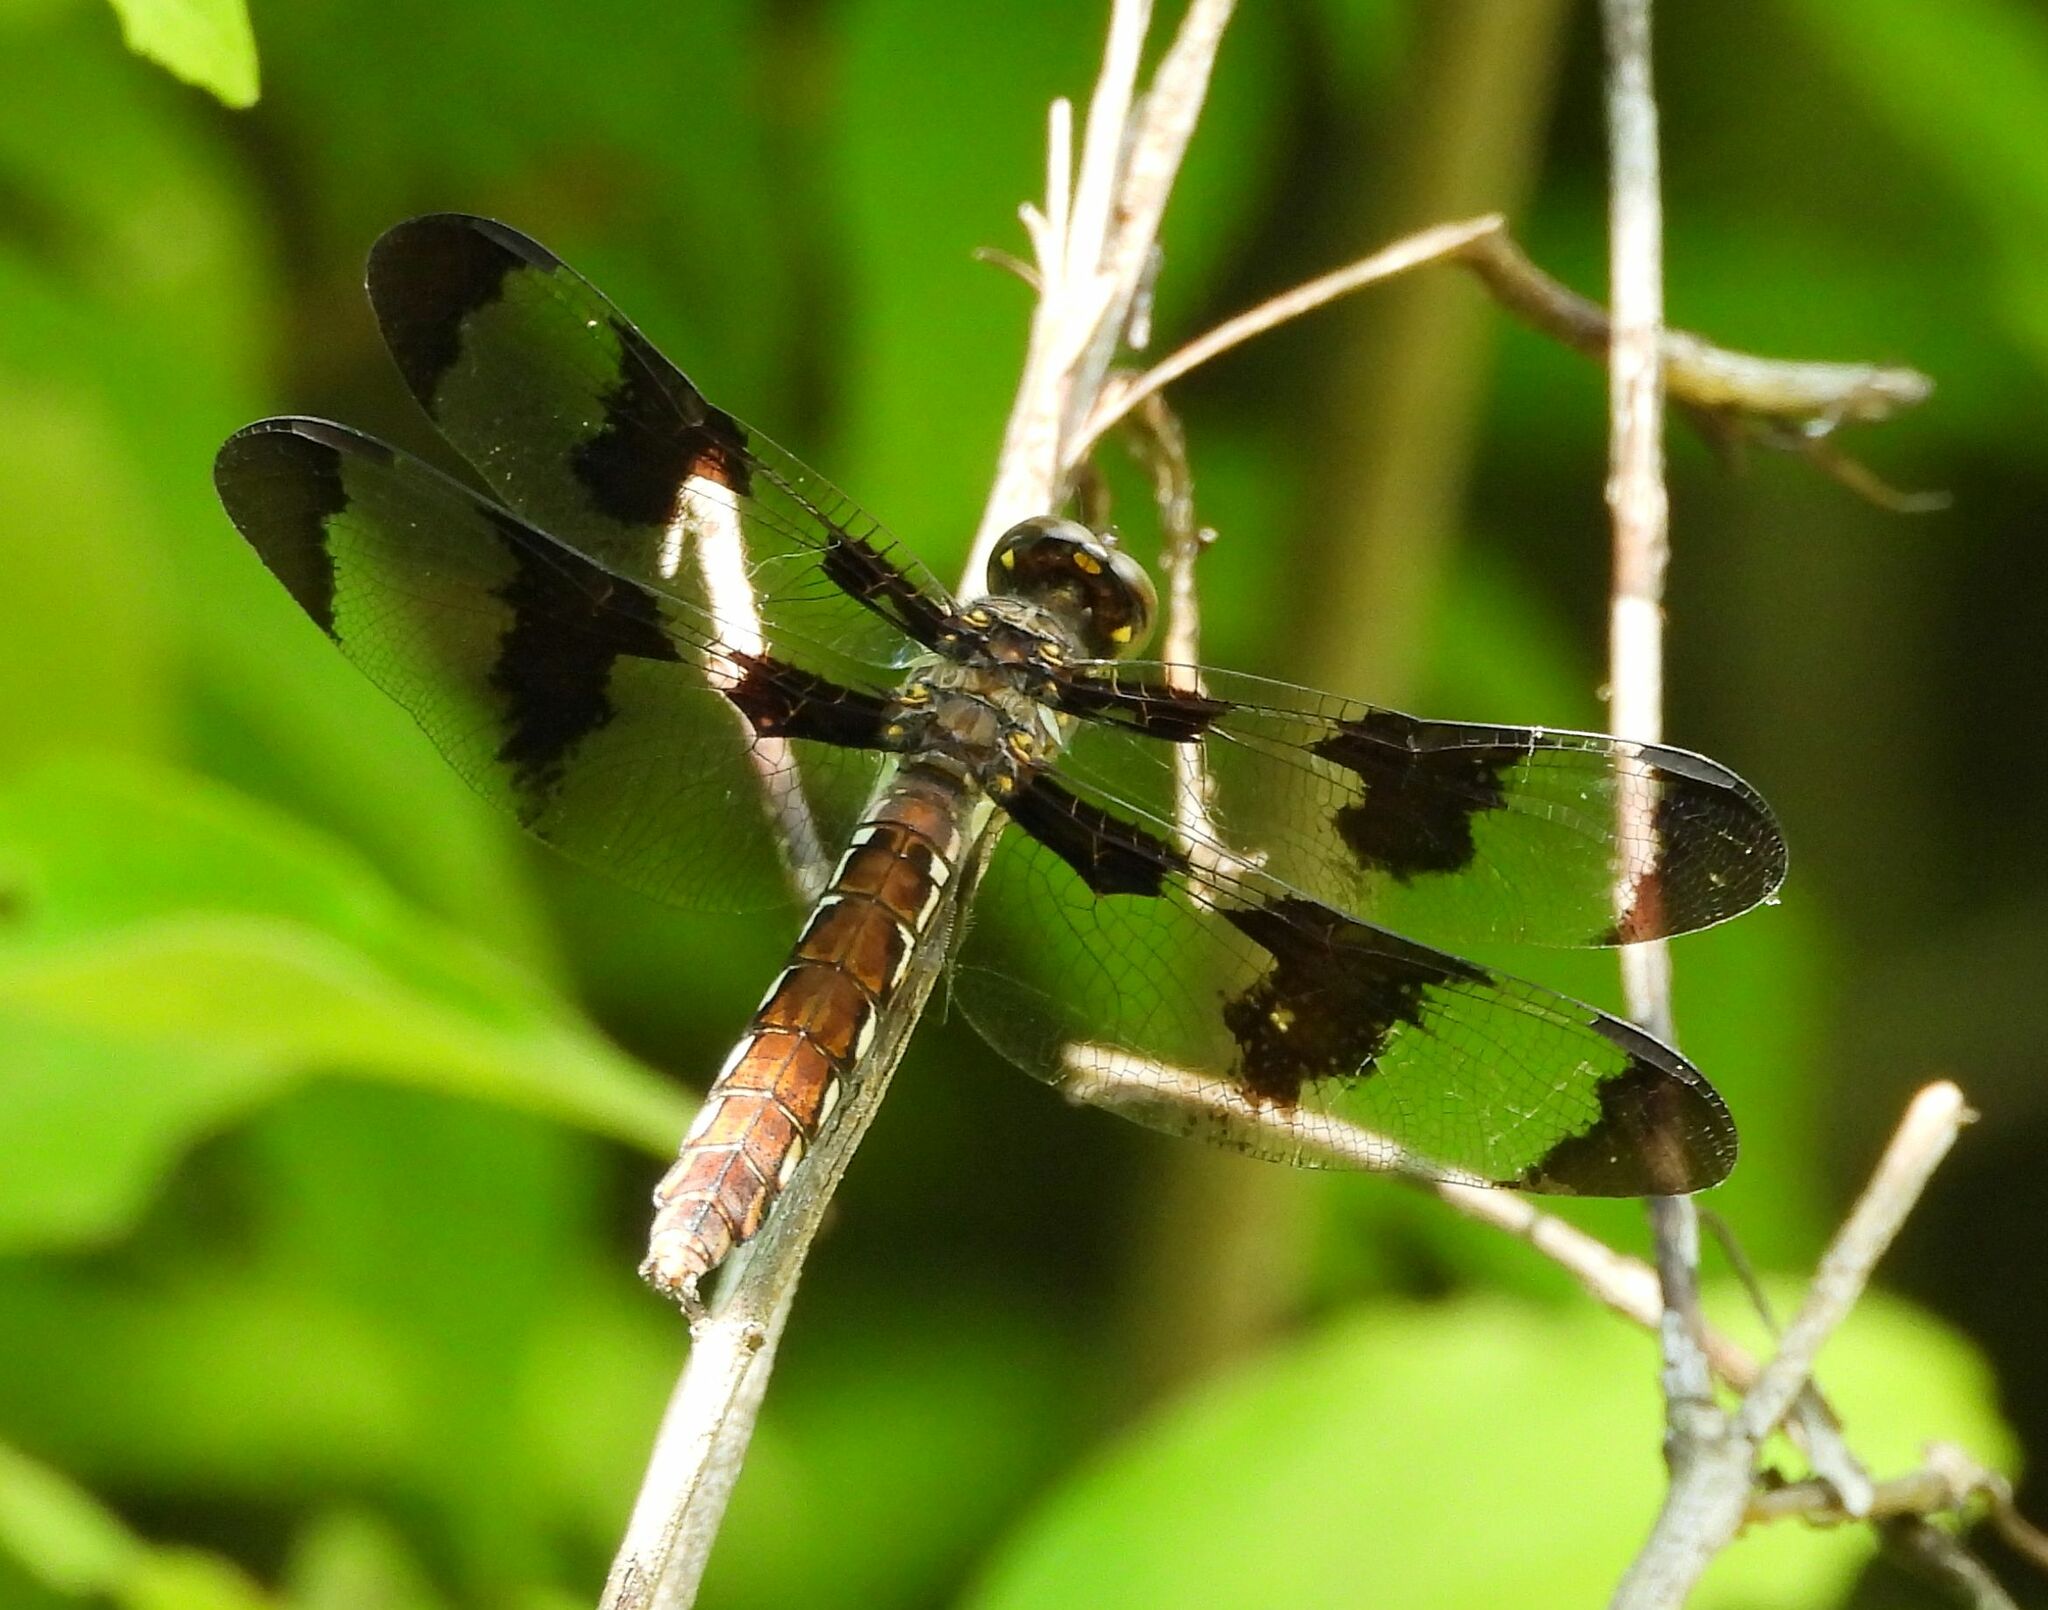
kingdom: Animalia
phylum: Arthropoda
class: Insecta
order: Odonata
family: Libellulidae
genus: Plathemis
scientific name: Plathemis lydia
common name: Common whitetail
